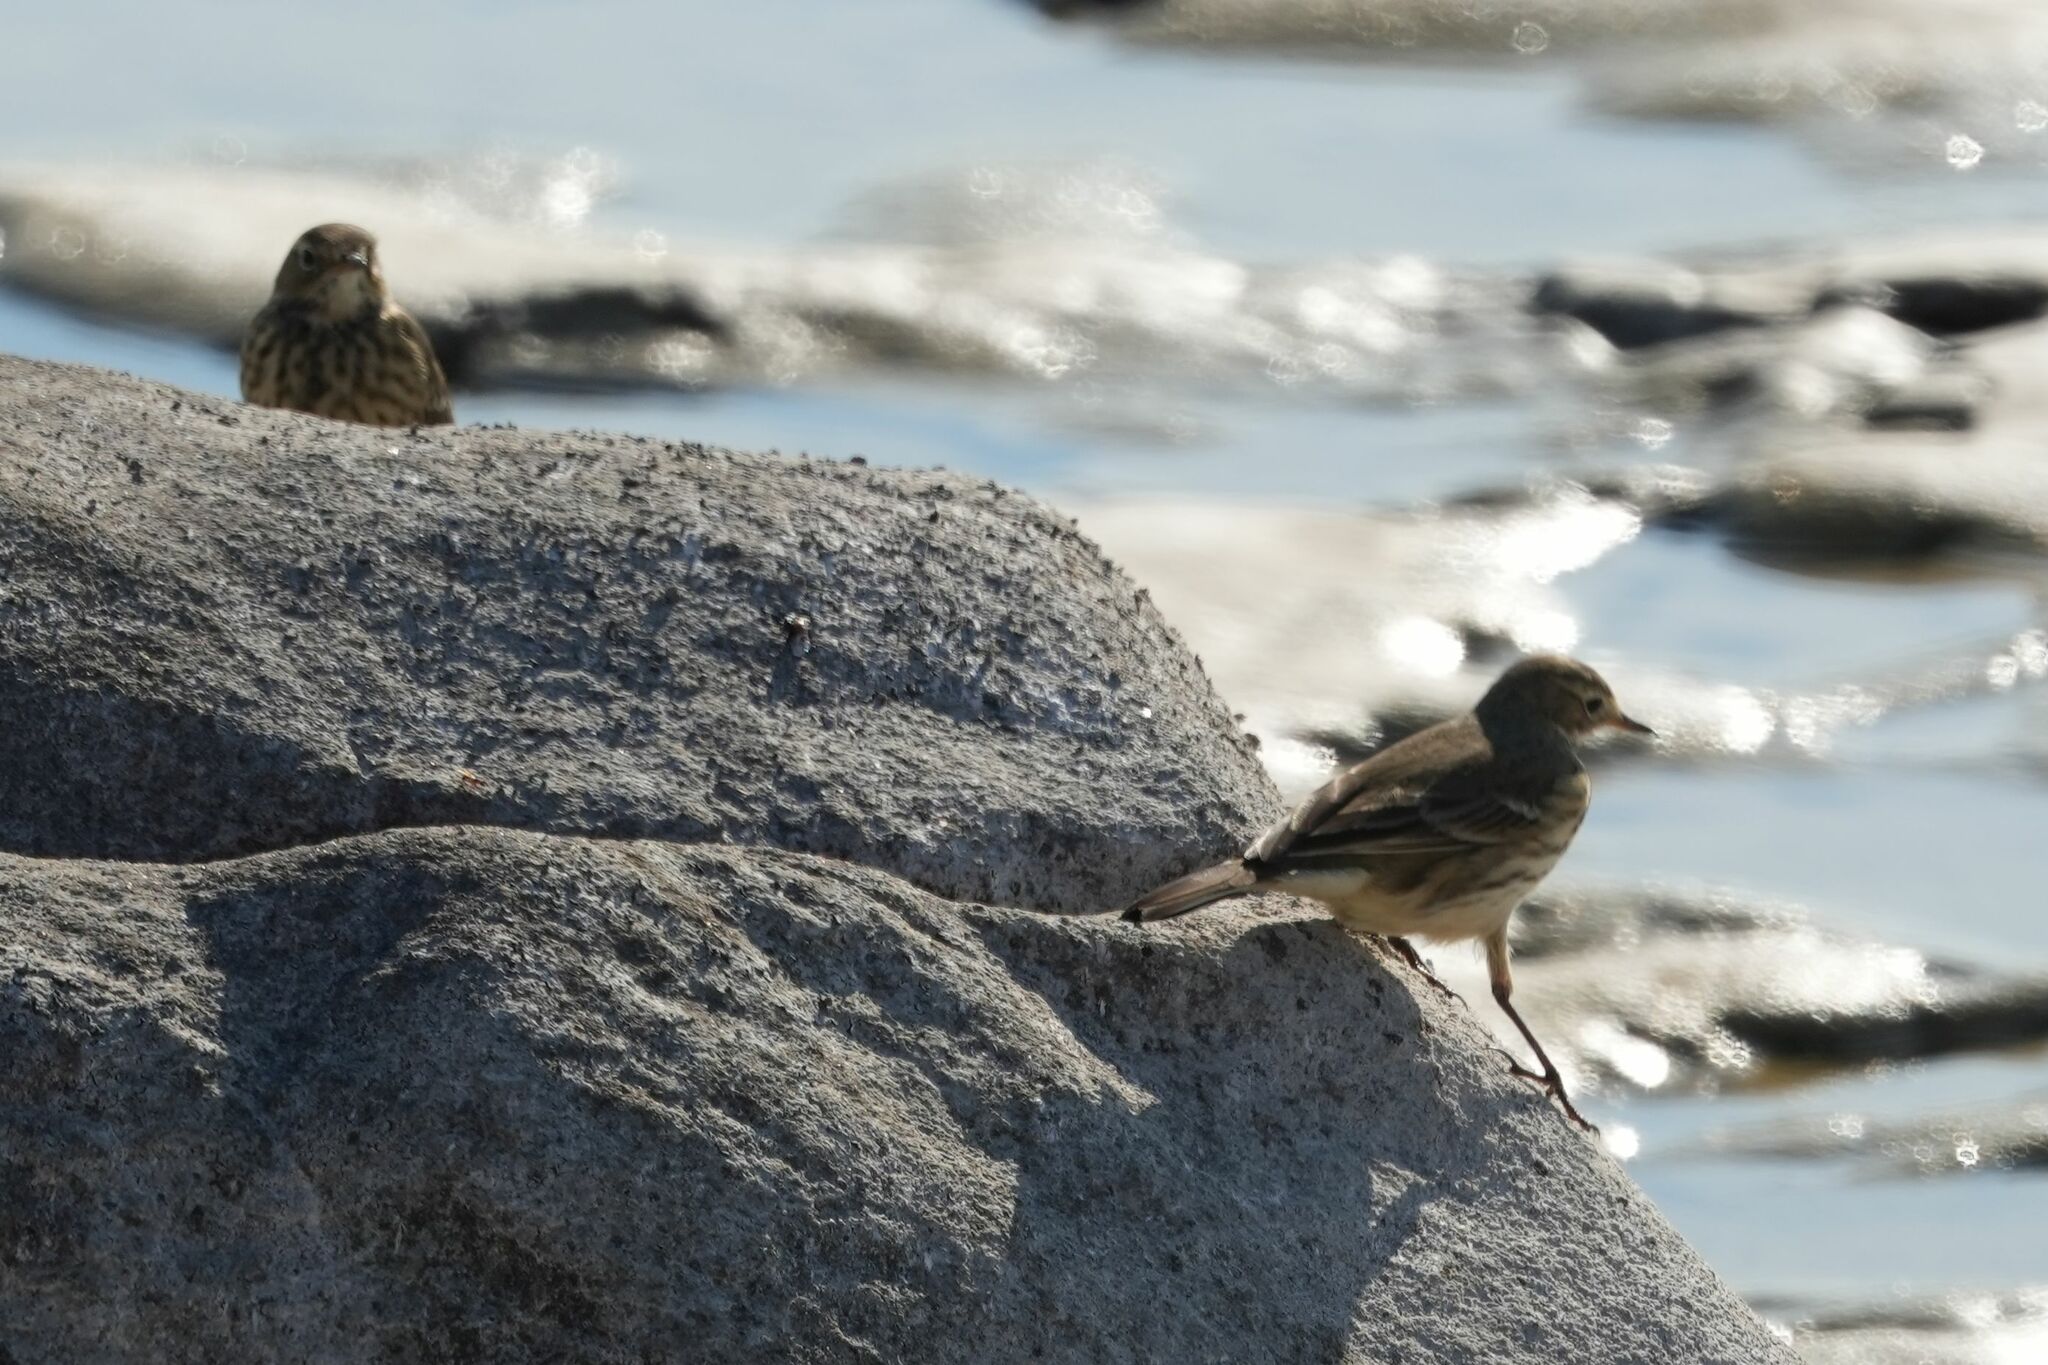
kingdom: Animalia
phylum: Chordata
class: Aves
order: Passeriformes
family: Motacillidae
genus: Anthus
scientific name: Anthus rubescens
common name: Buff-bellied pipit
